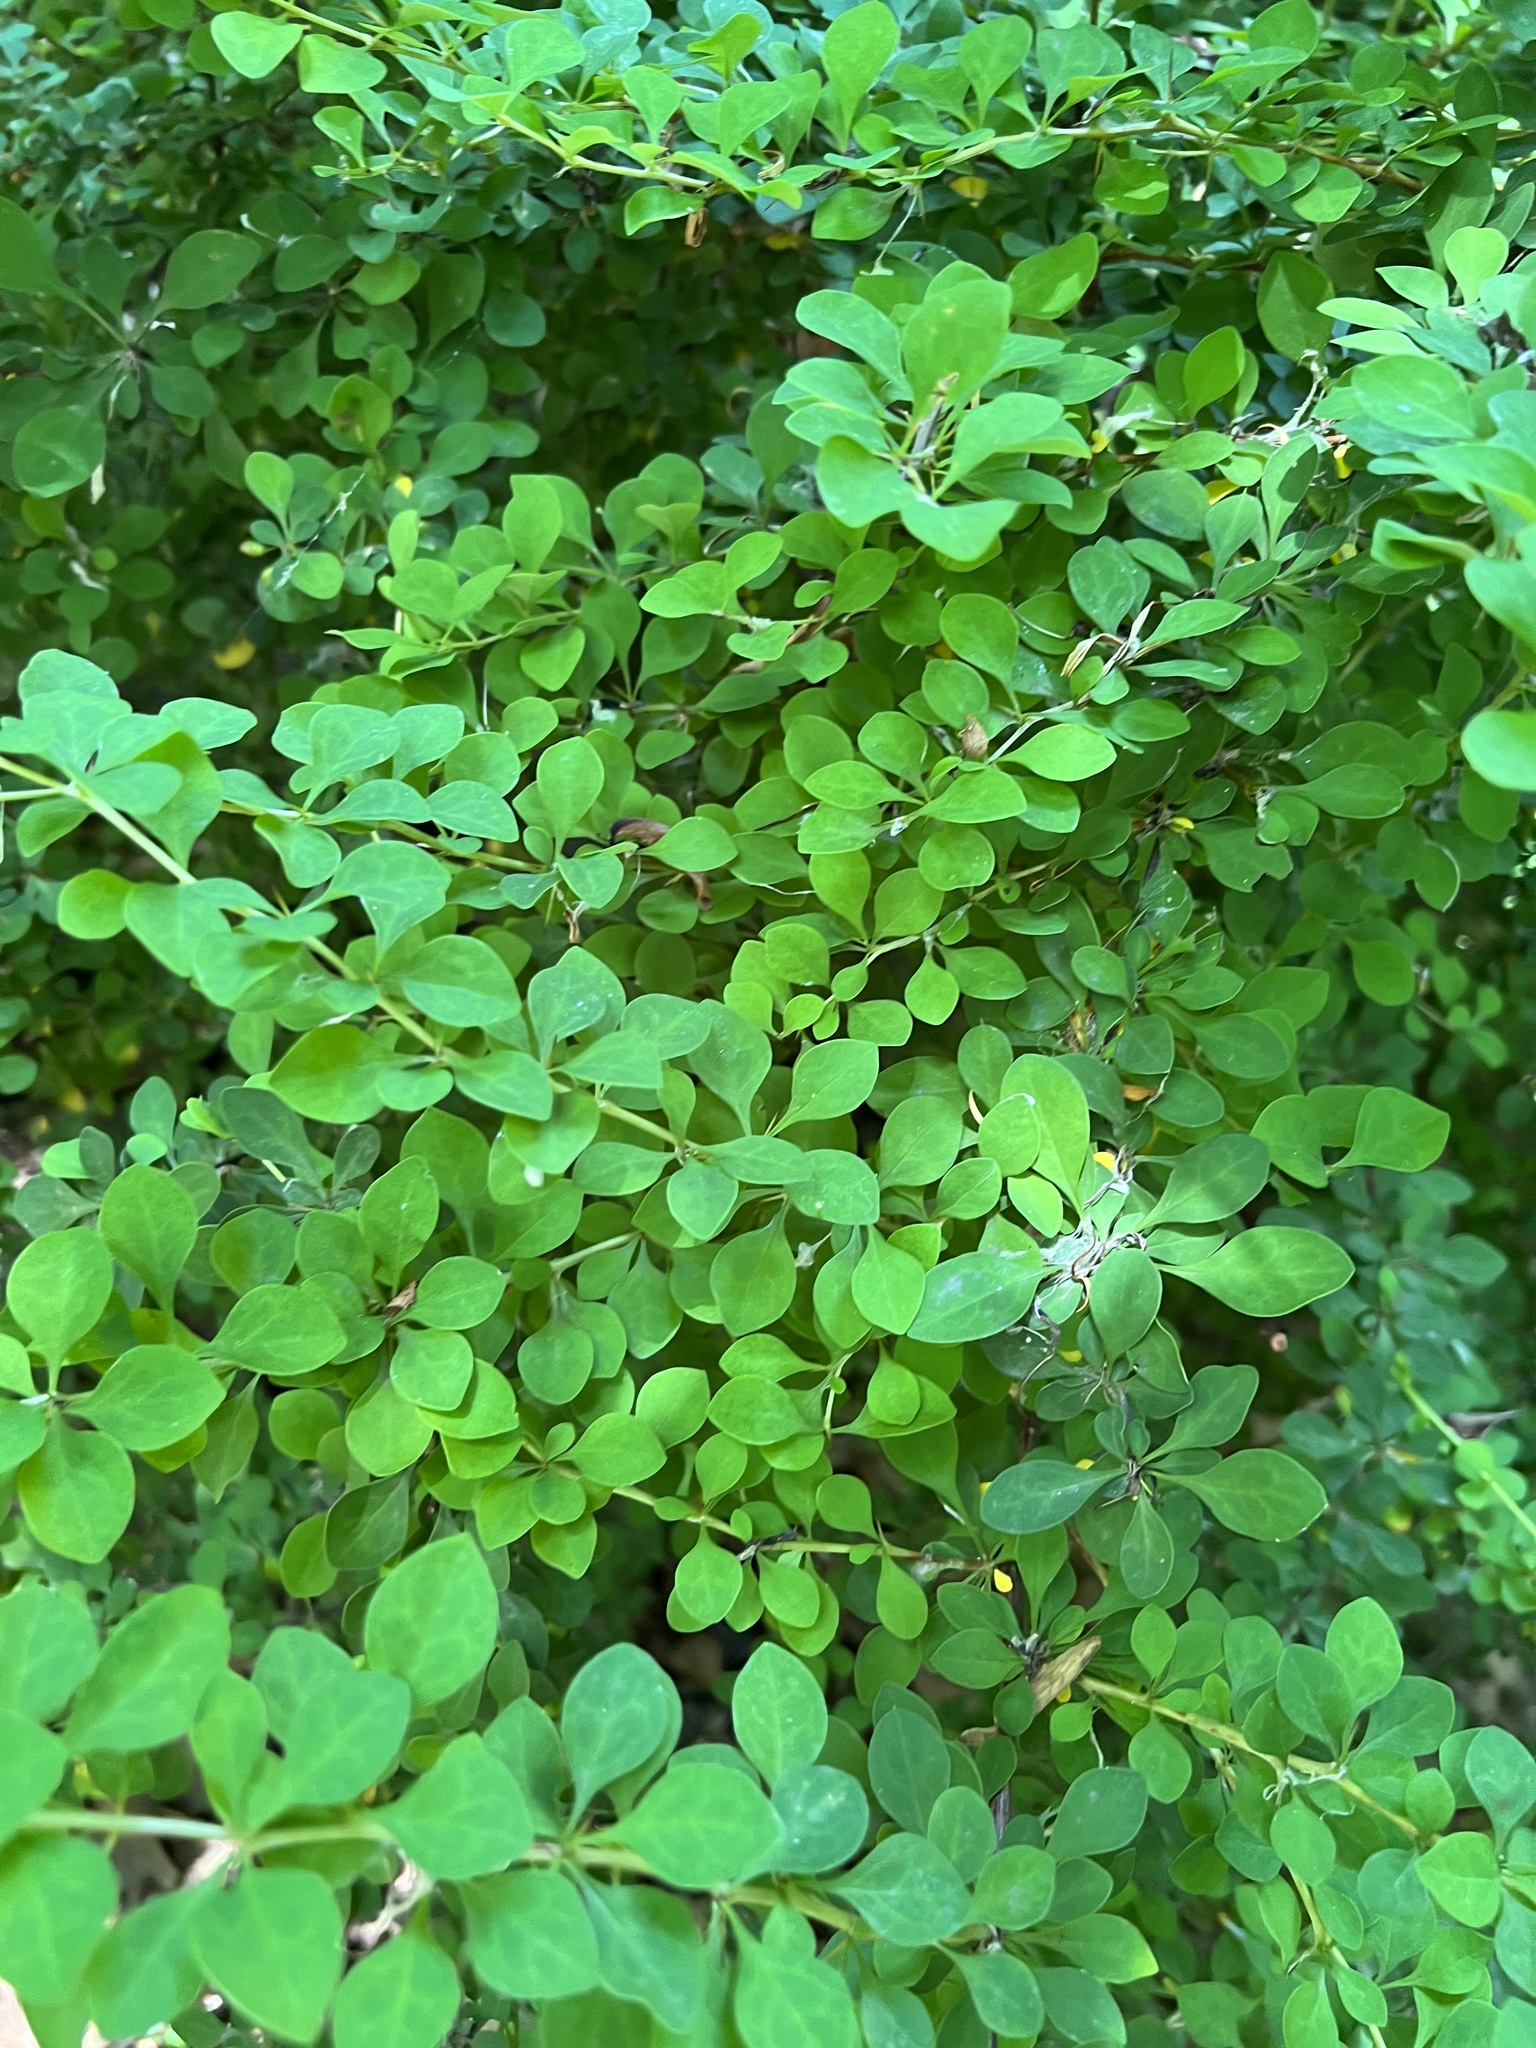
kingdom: Plantae
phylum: Tracheophyta
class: Magnoliopsida
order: Ranunculales
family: Berberidaceae
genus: Berberis
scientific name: Berberis thunbergii
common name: Japanese barberry
